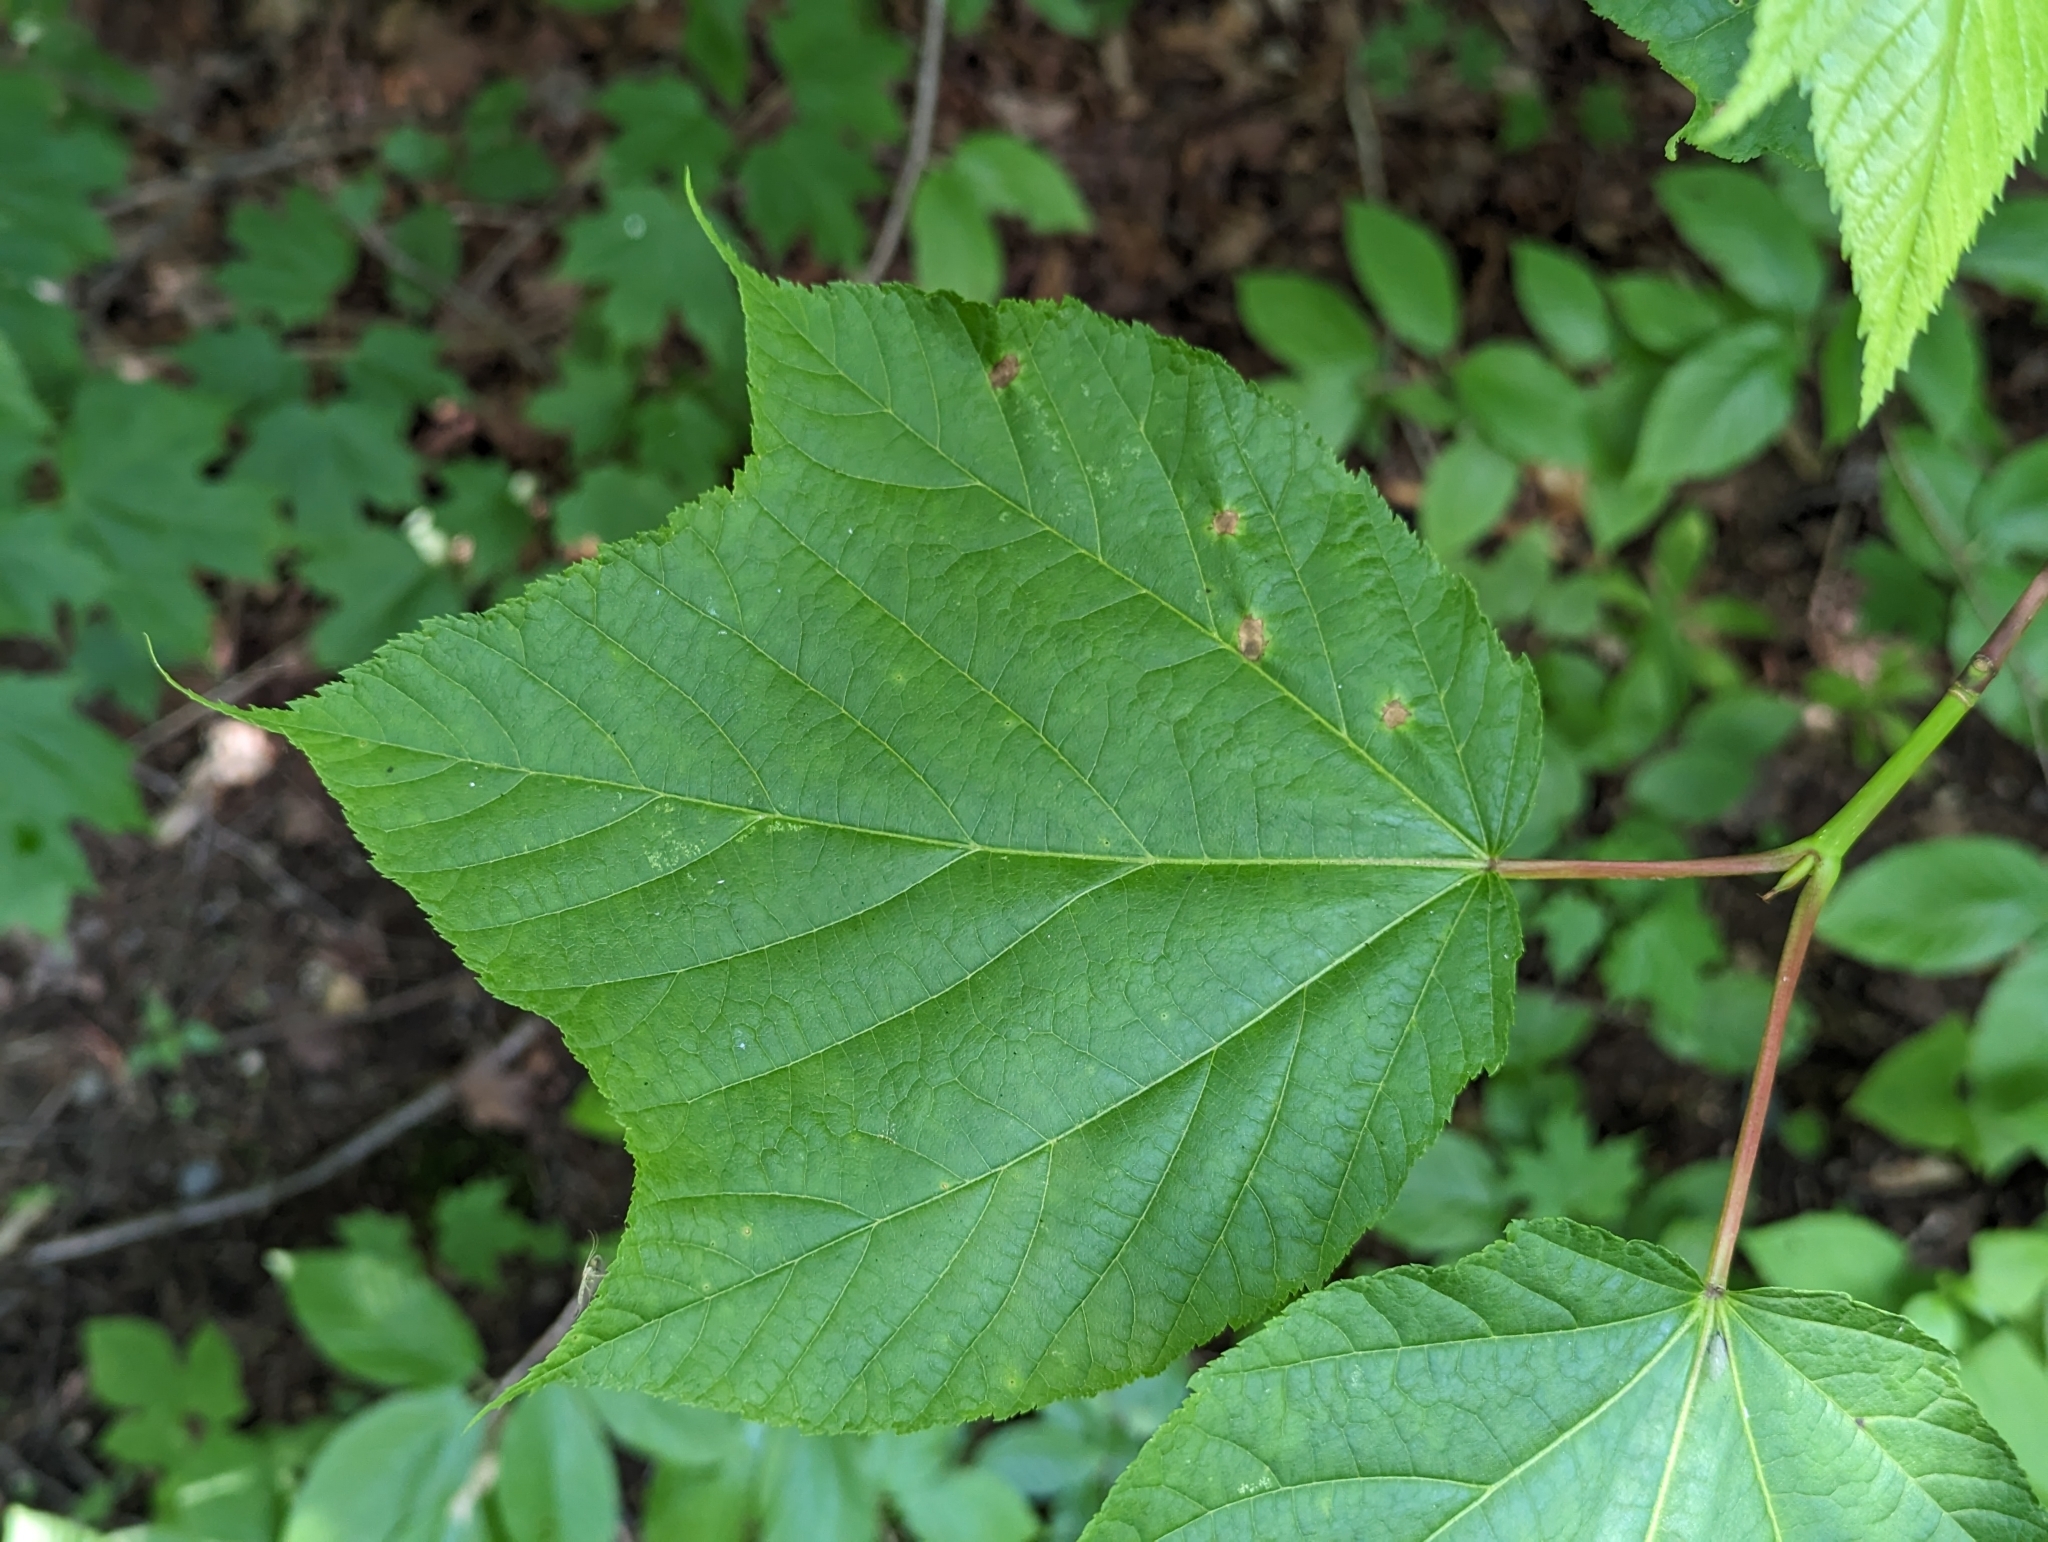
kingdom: Plantae
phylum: Tracheophyta
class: Magnoliopsida
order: Sapindales
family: Sapindaceae
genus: Acer
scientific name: Acer pensylvanicum
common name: Moosewood
